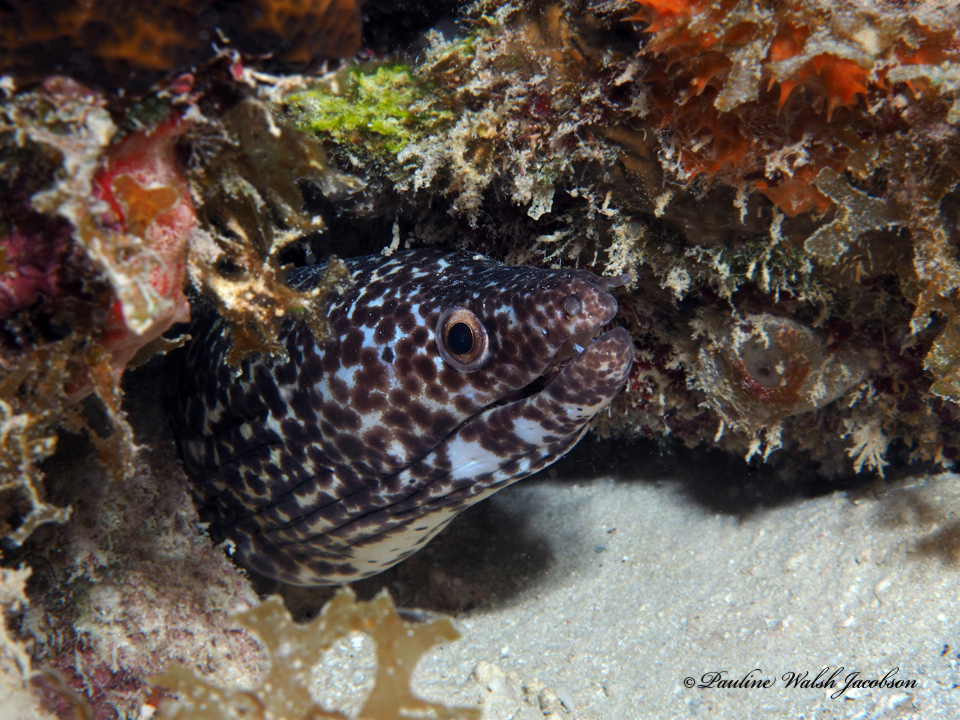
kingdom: Animalia
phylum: Chordata
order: Anguilliformes
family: Muraenidae
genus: Gymnothorax
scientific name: Gymnothorax moringa
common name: Spotted moray
